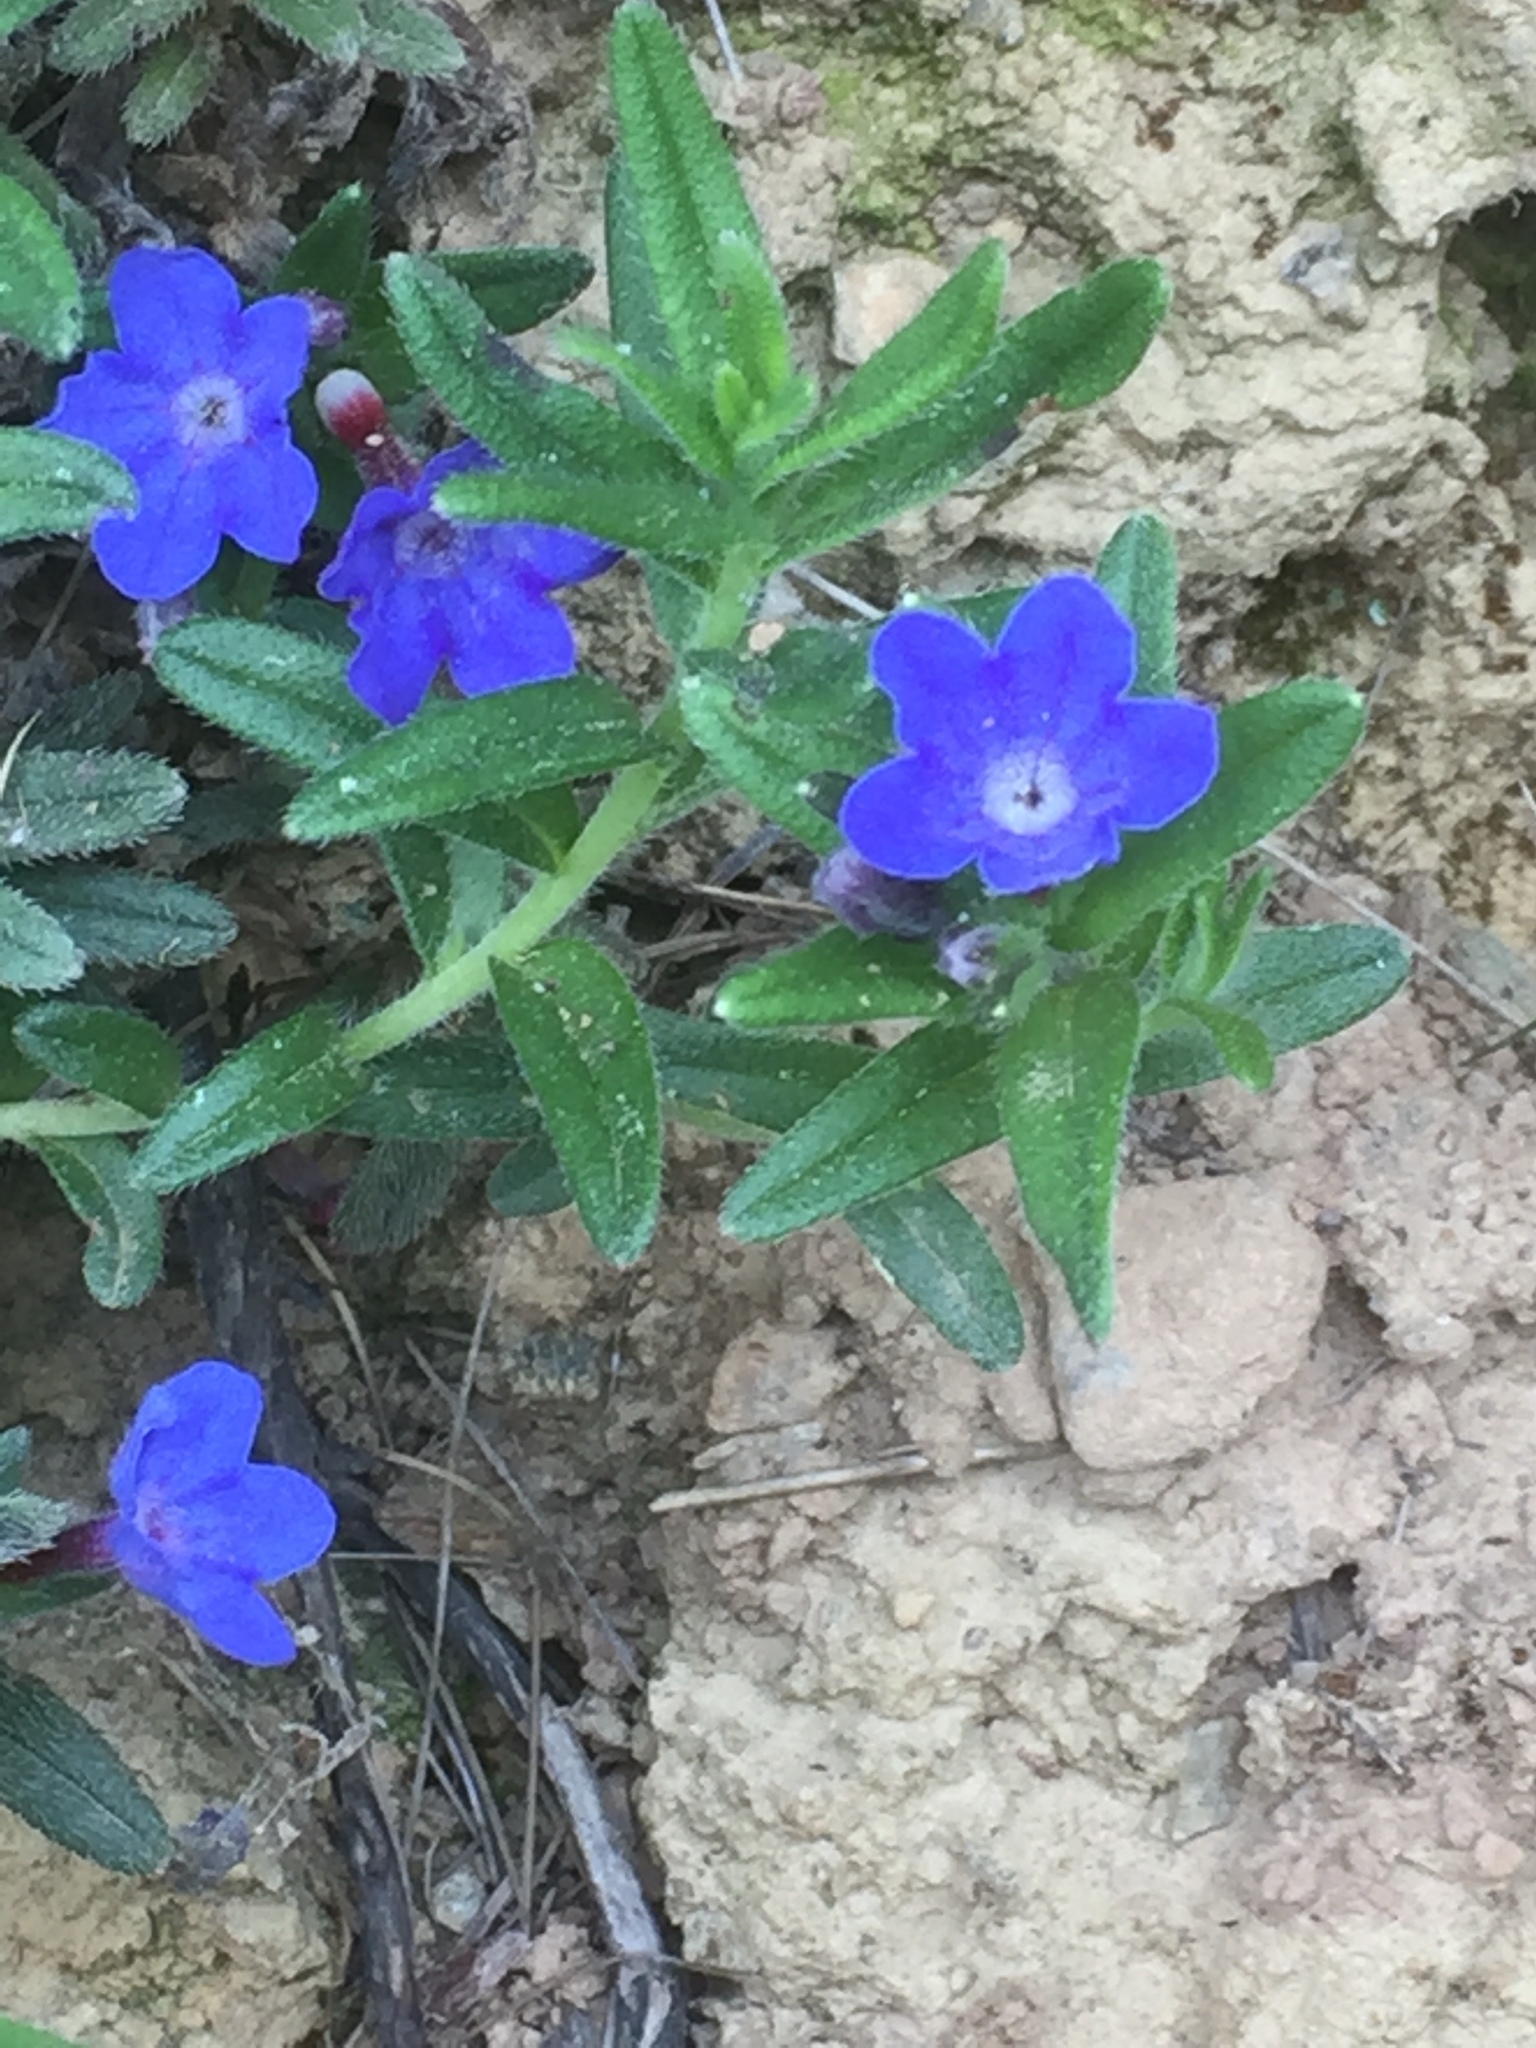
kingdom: Plantae
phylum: Tracheophyta
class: Magnoliopsida
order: Boraginales
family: Boraginaceae
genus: Glandora
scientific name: Glandora prostrata
